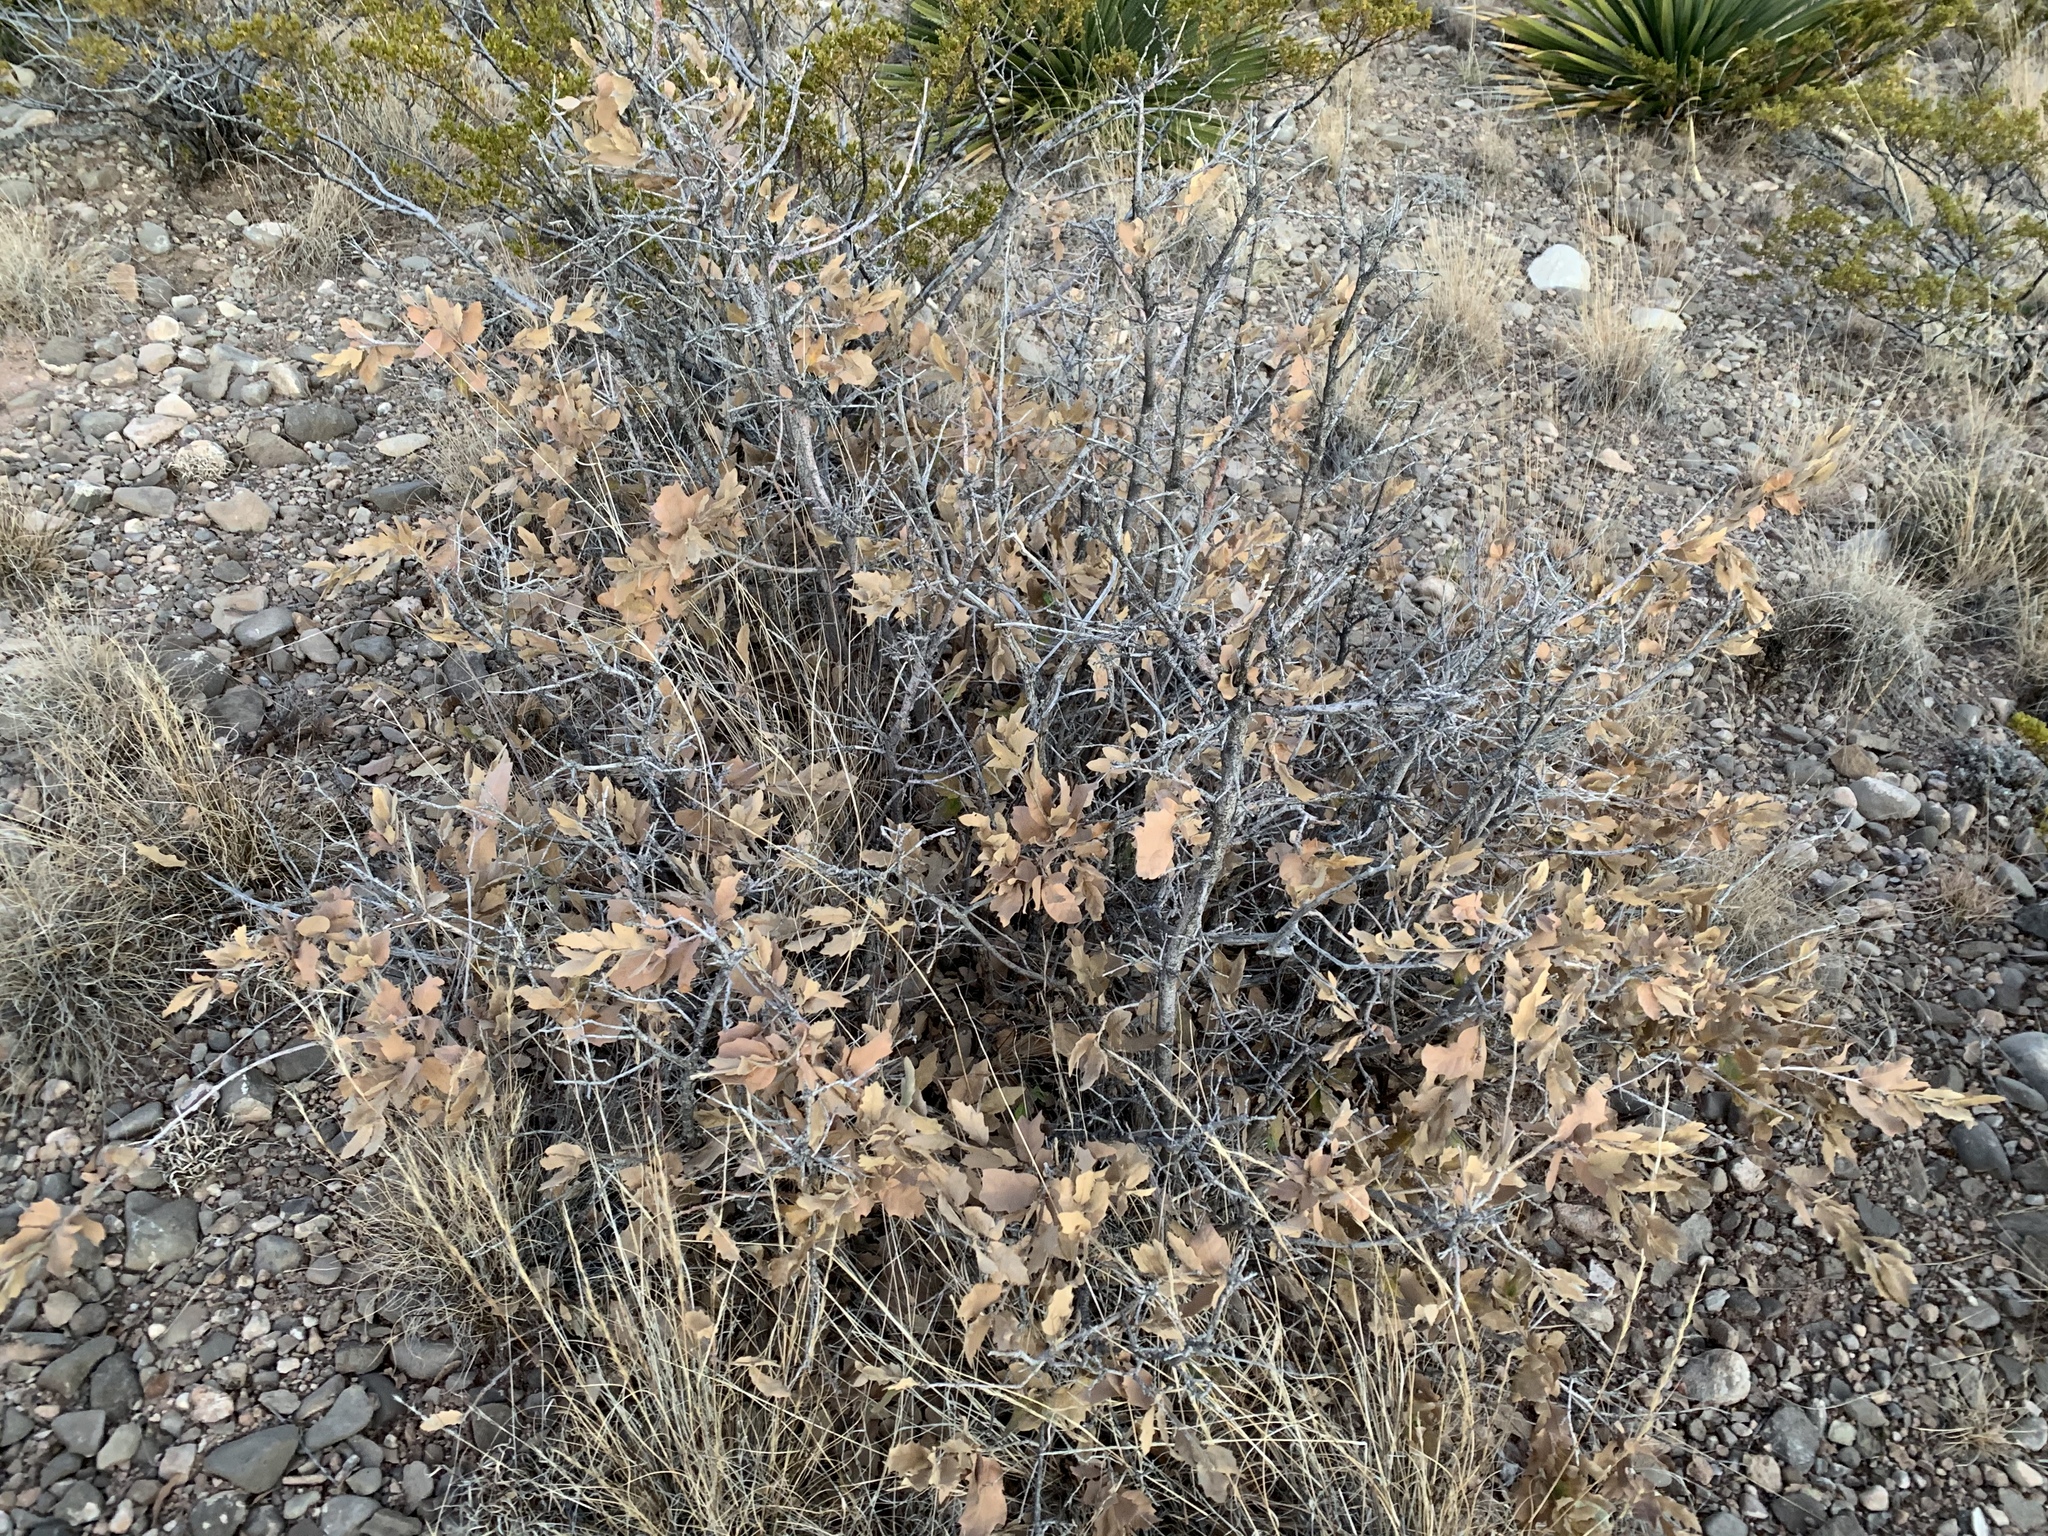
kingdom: Plantae
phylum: Tracheophyta
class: Magnoliopsida
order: Fagales
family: Fagaceae
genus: Quercus
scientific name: Quercus undulata
